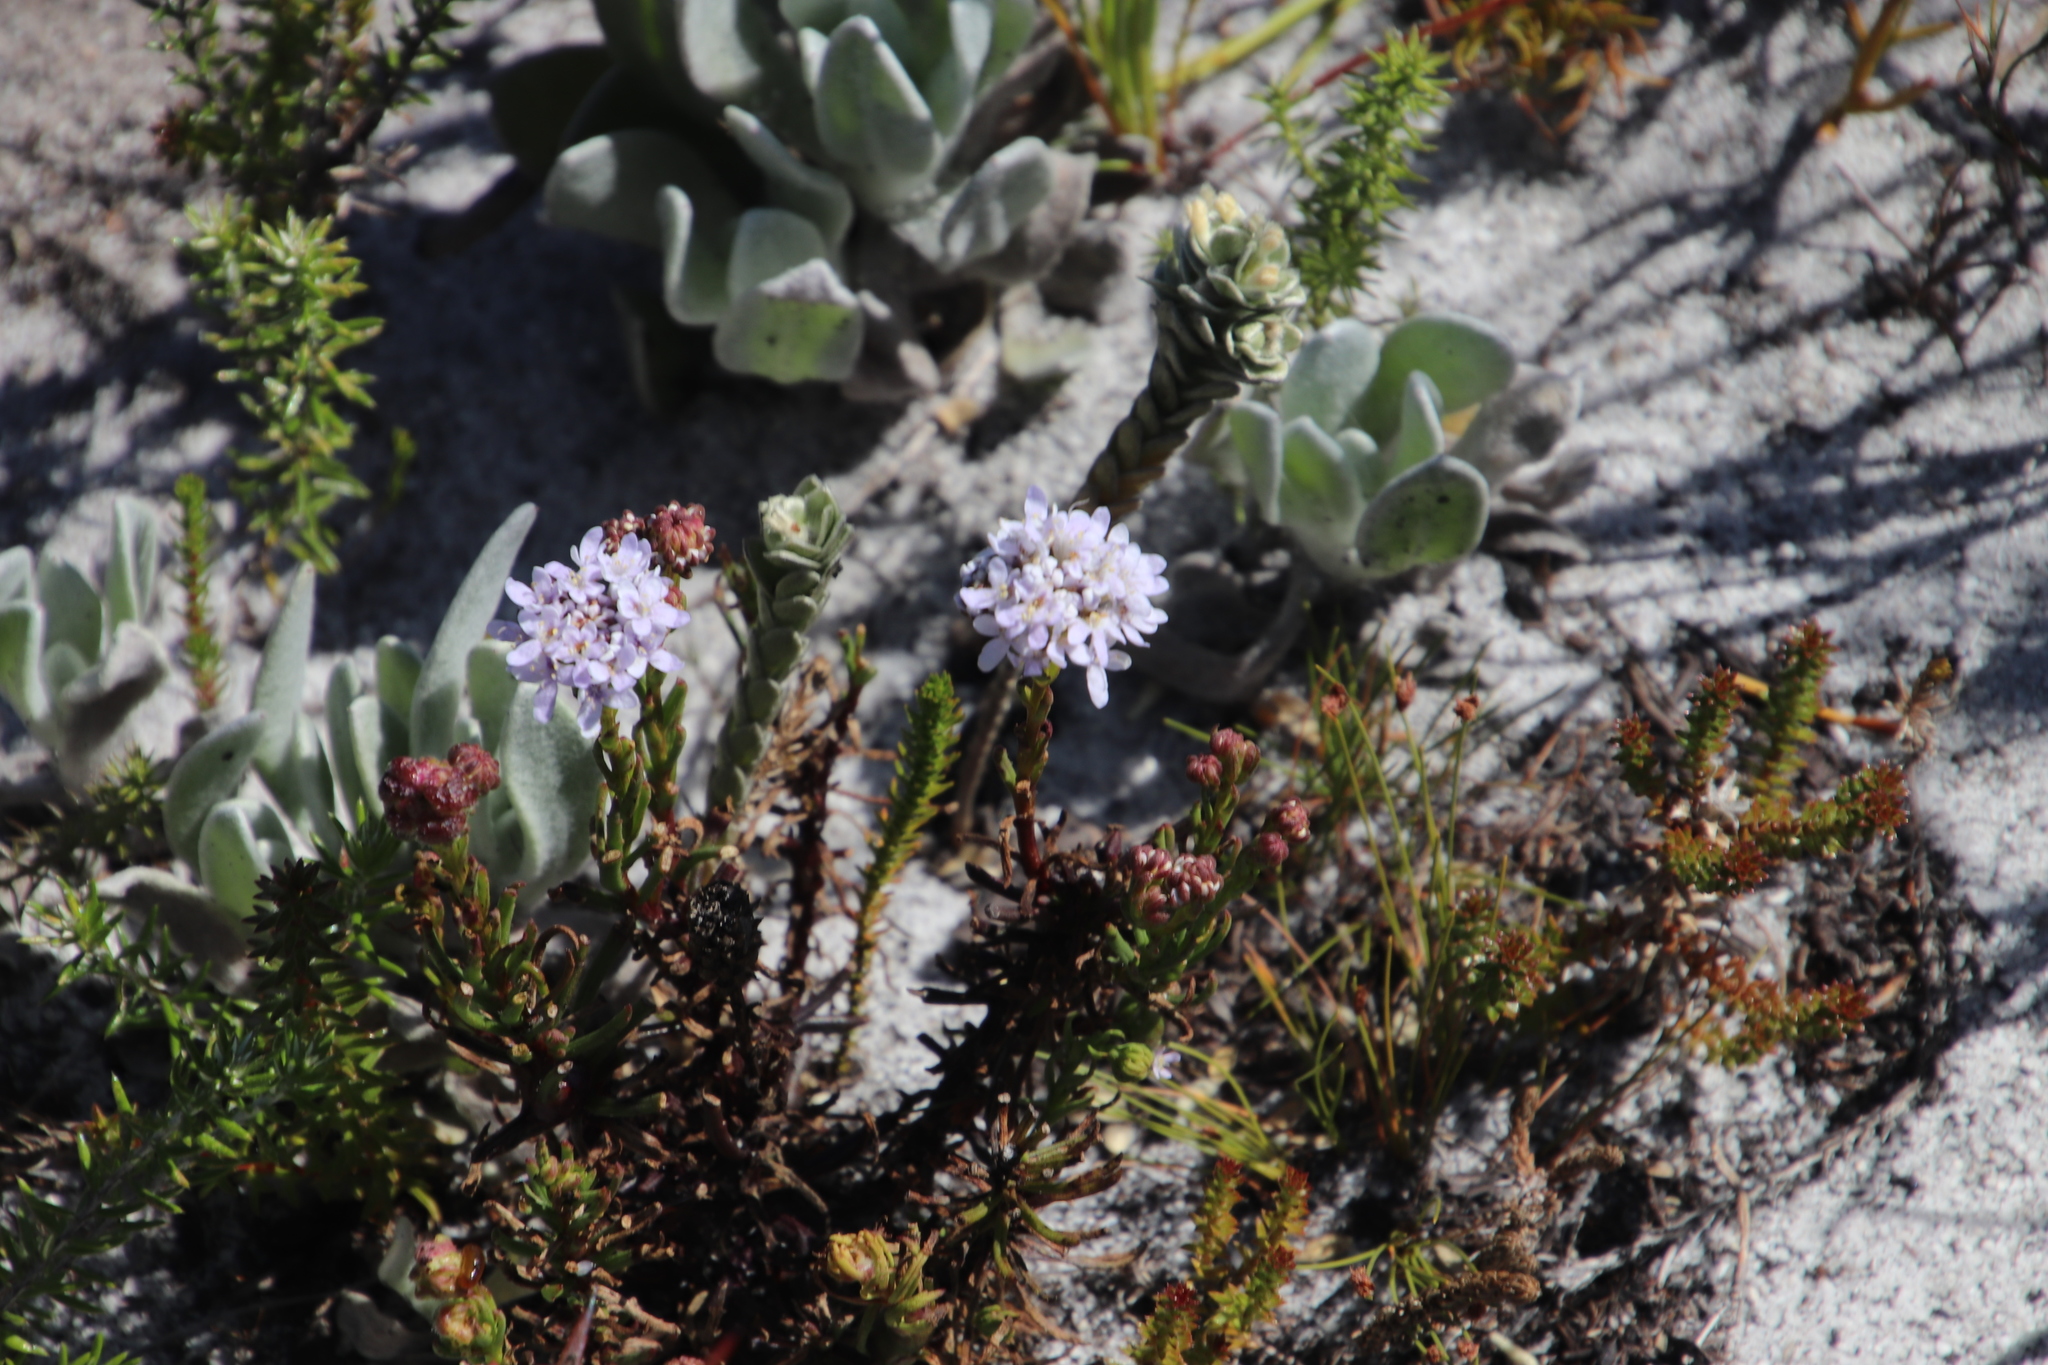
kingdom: Plantae
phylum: Tracheophyta
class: Magnoliopsida
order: Lamiales
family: Scrophulariaceae
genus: Pseudoselago
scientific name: Pseudoselago spuria
